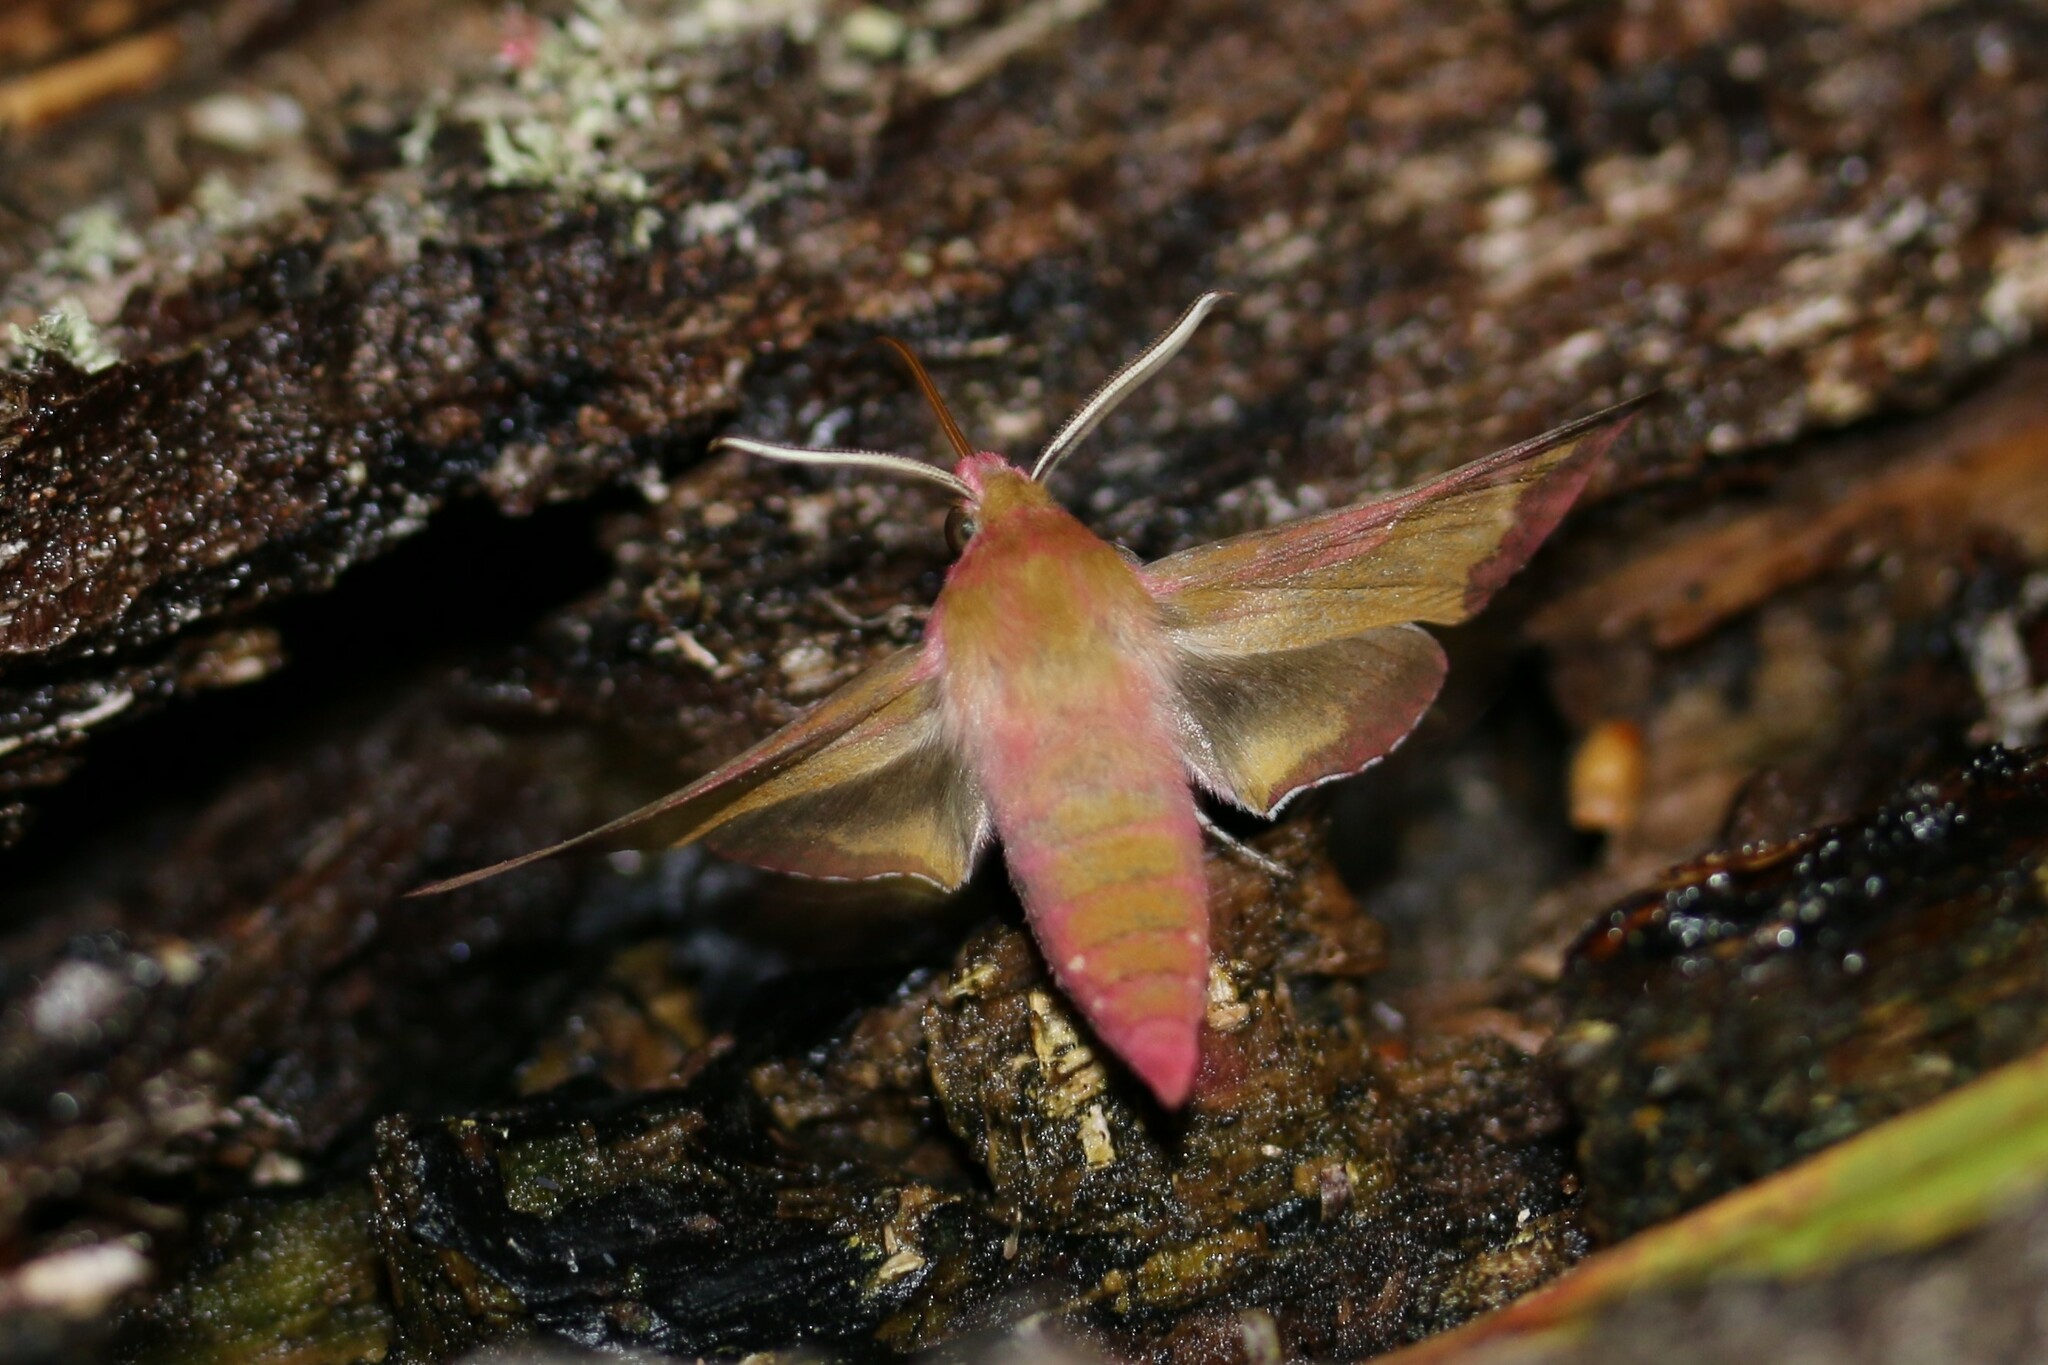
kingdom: Animalia
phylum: Arthropoda
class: Insecta
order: Lepidoptera
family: Sphingidae
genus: Deilephila
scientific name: Deilephila porcellus
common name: Small elephant hawk-moth
